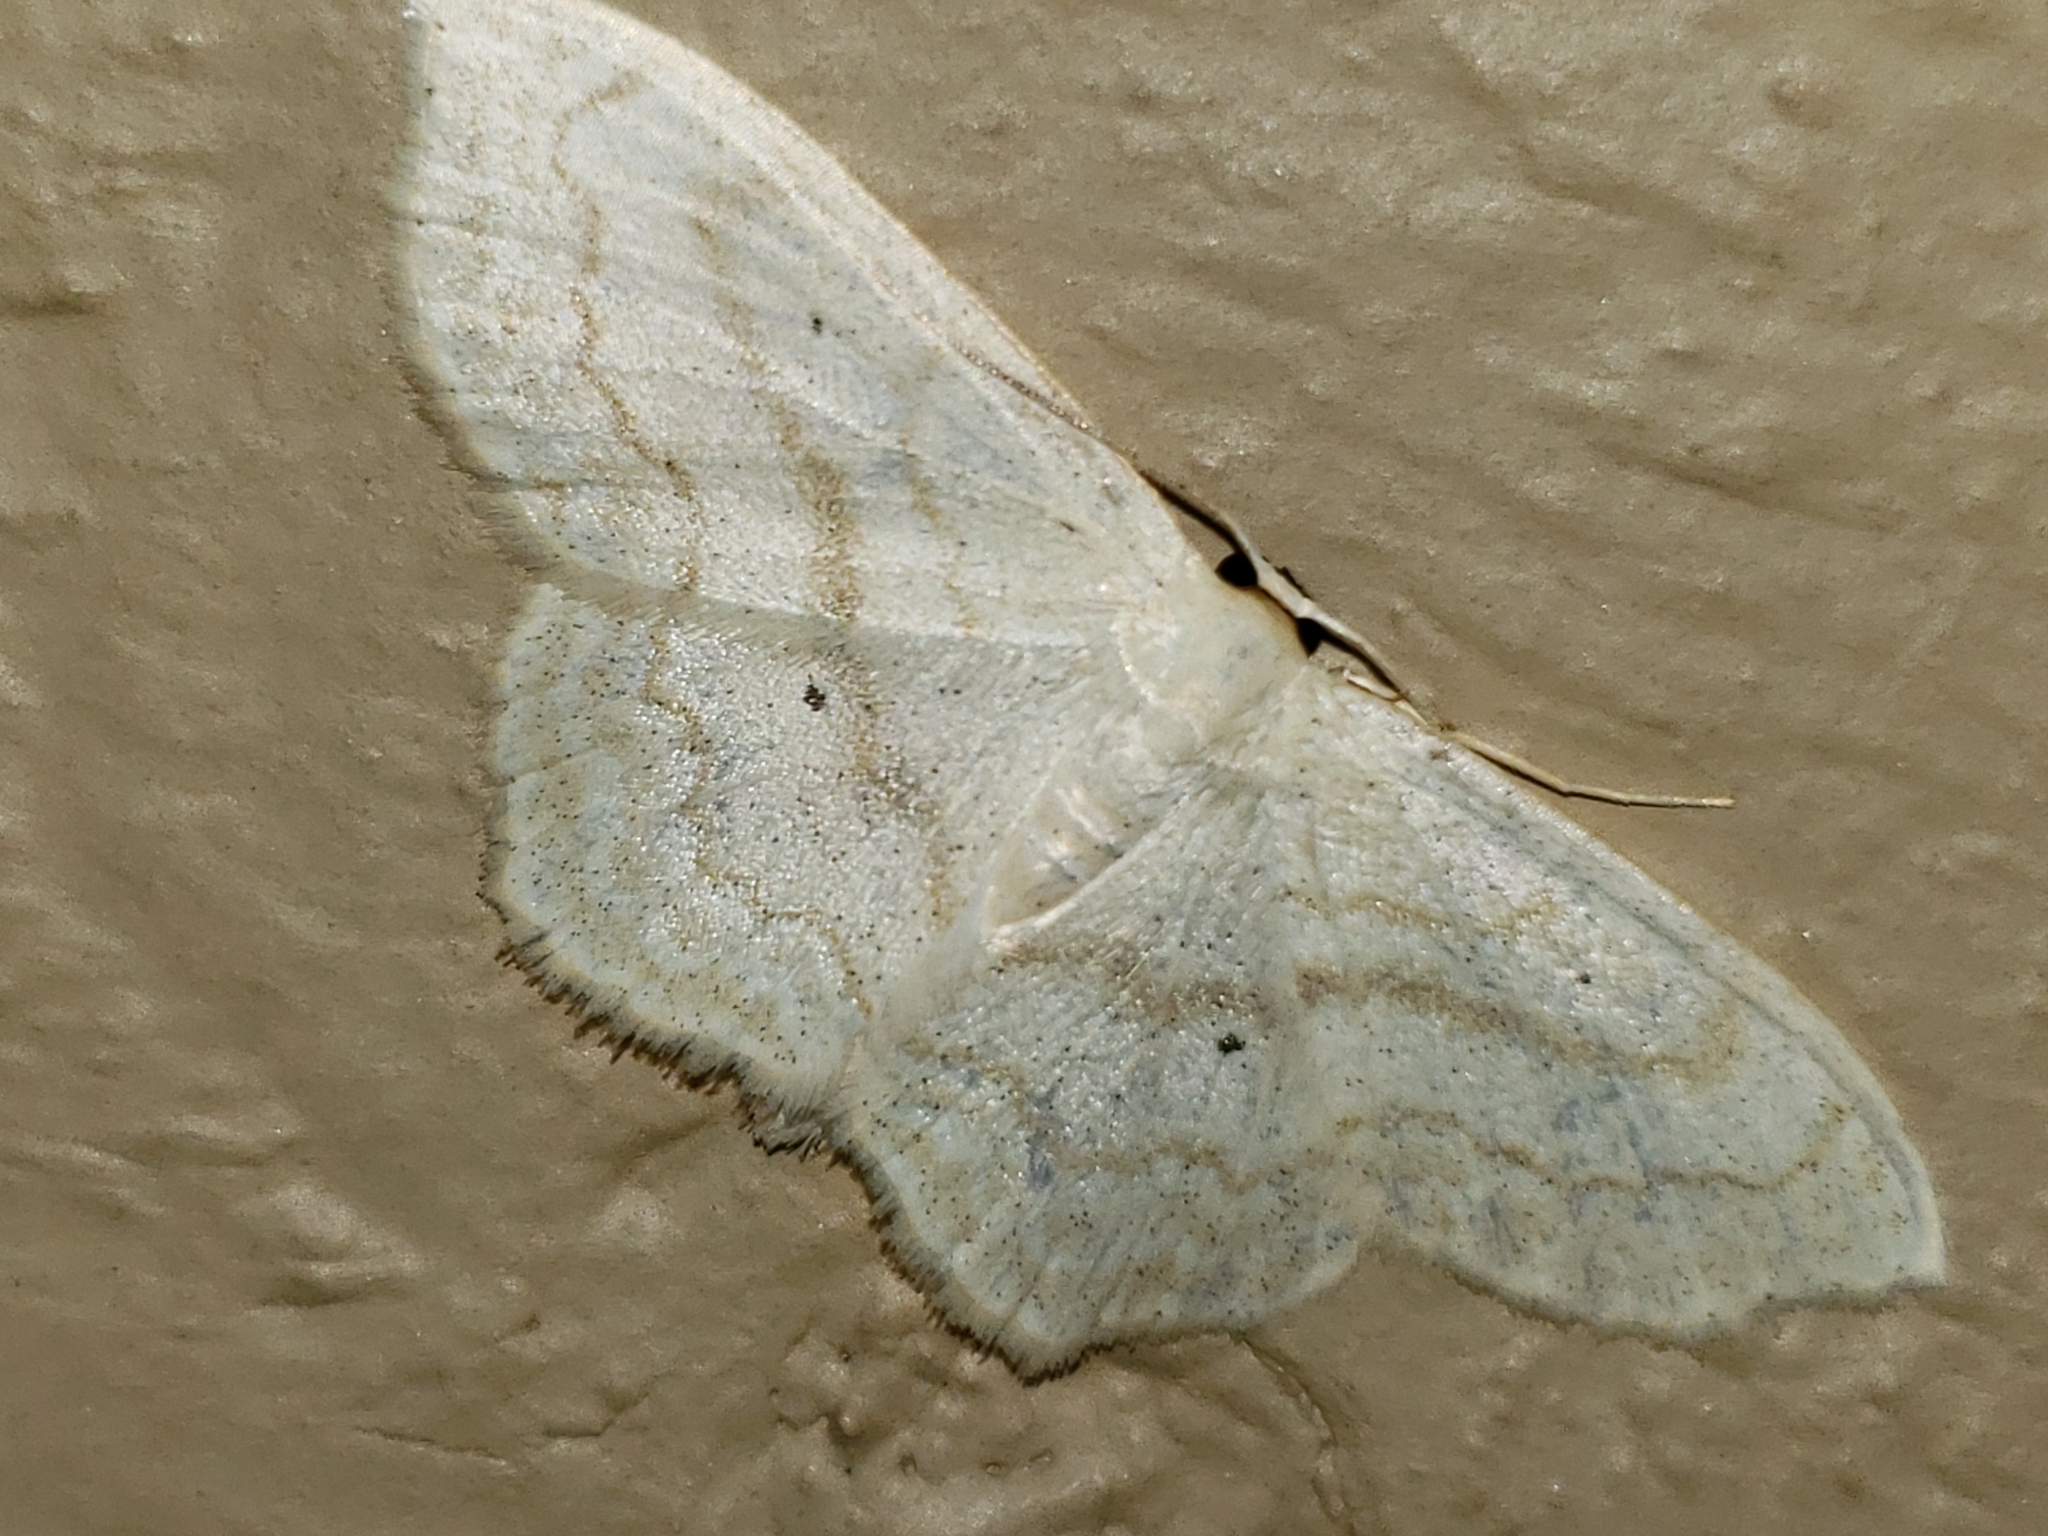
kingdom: Animalia
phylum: Arthropoda
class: Insecta
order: Lepidoptera
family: Geometridae
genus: Scopula
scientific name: Scopula limboundata
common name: Large lace border
